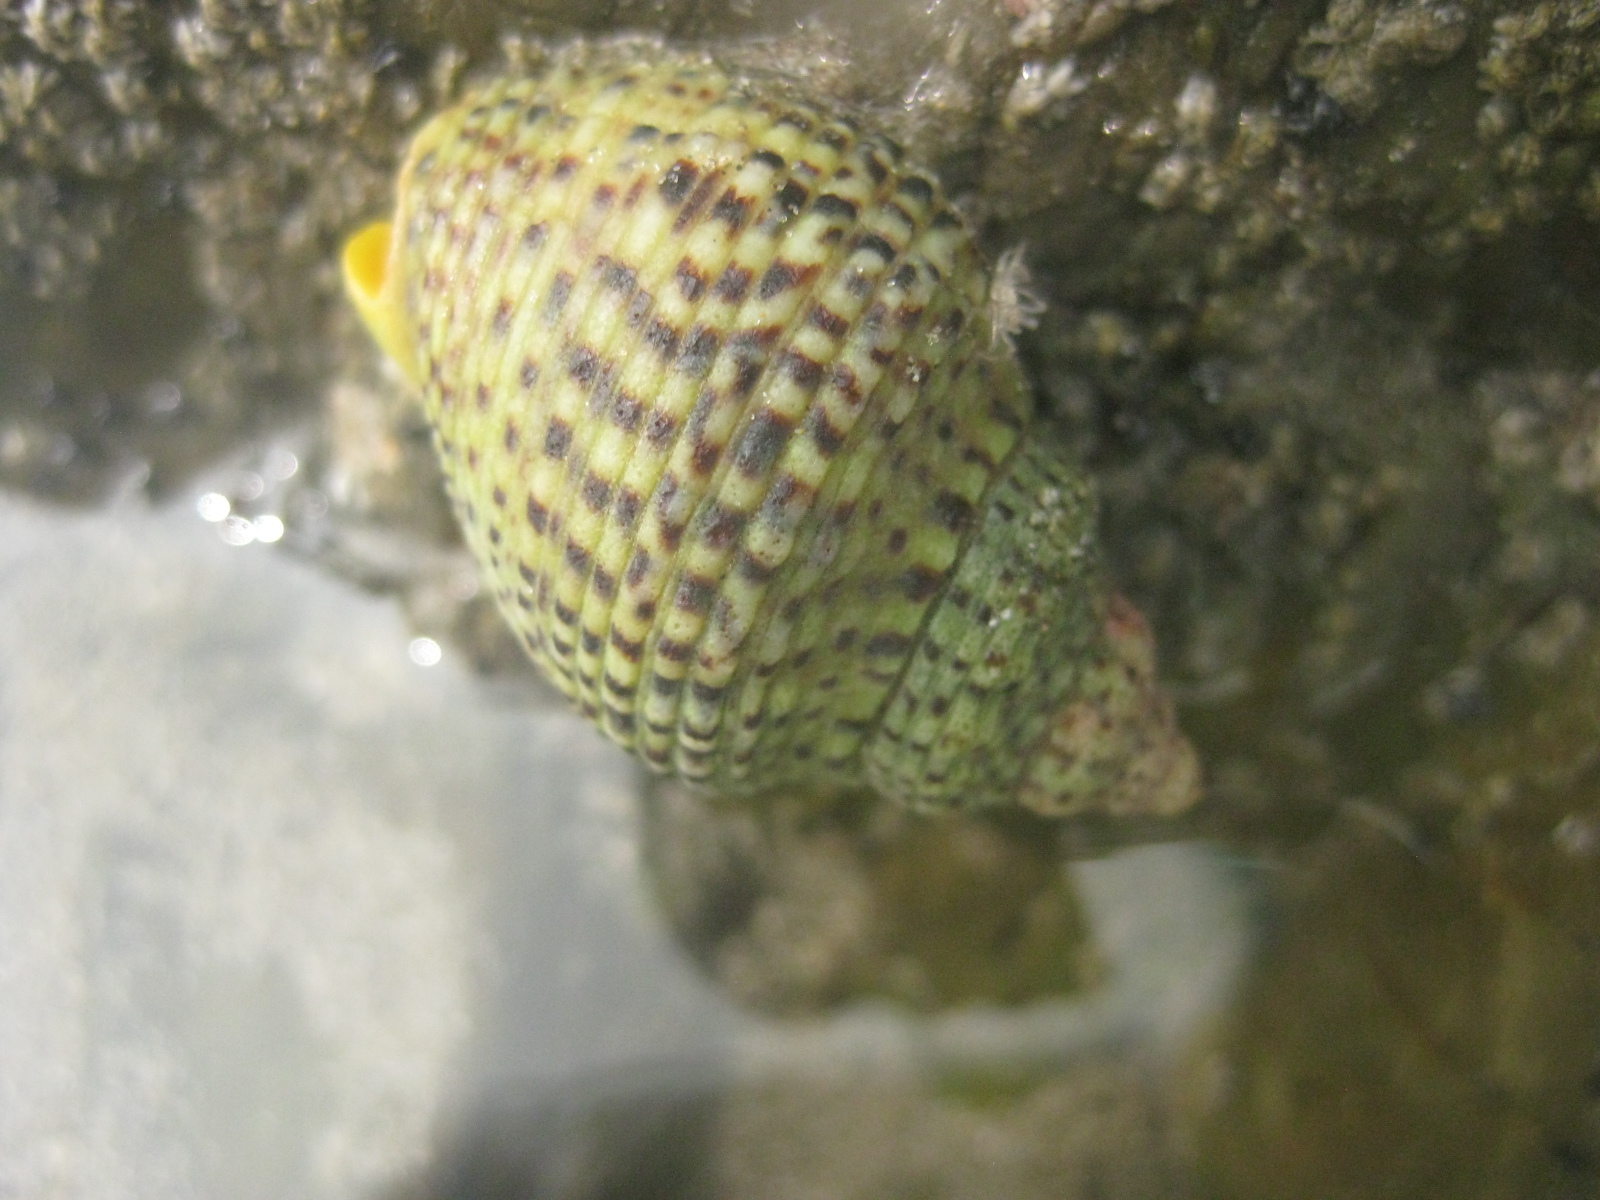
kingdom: Animalia
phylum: Mollusca
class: Gastropoda
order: Neogastropoda
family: Cominellidae
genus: Cominella
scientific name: Cominella adspersa
